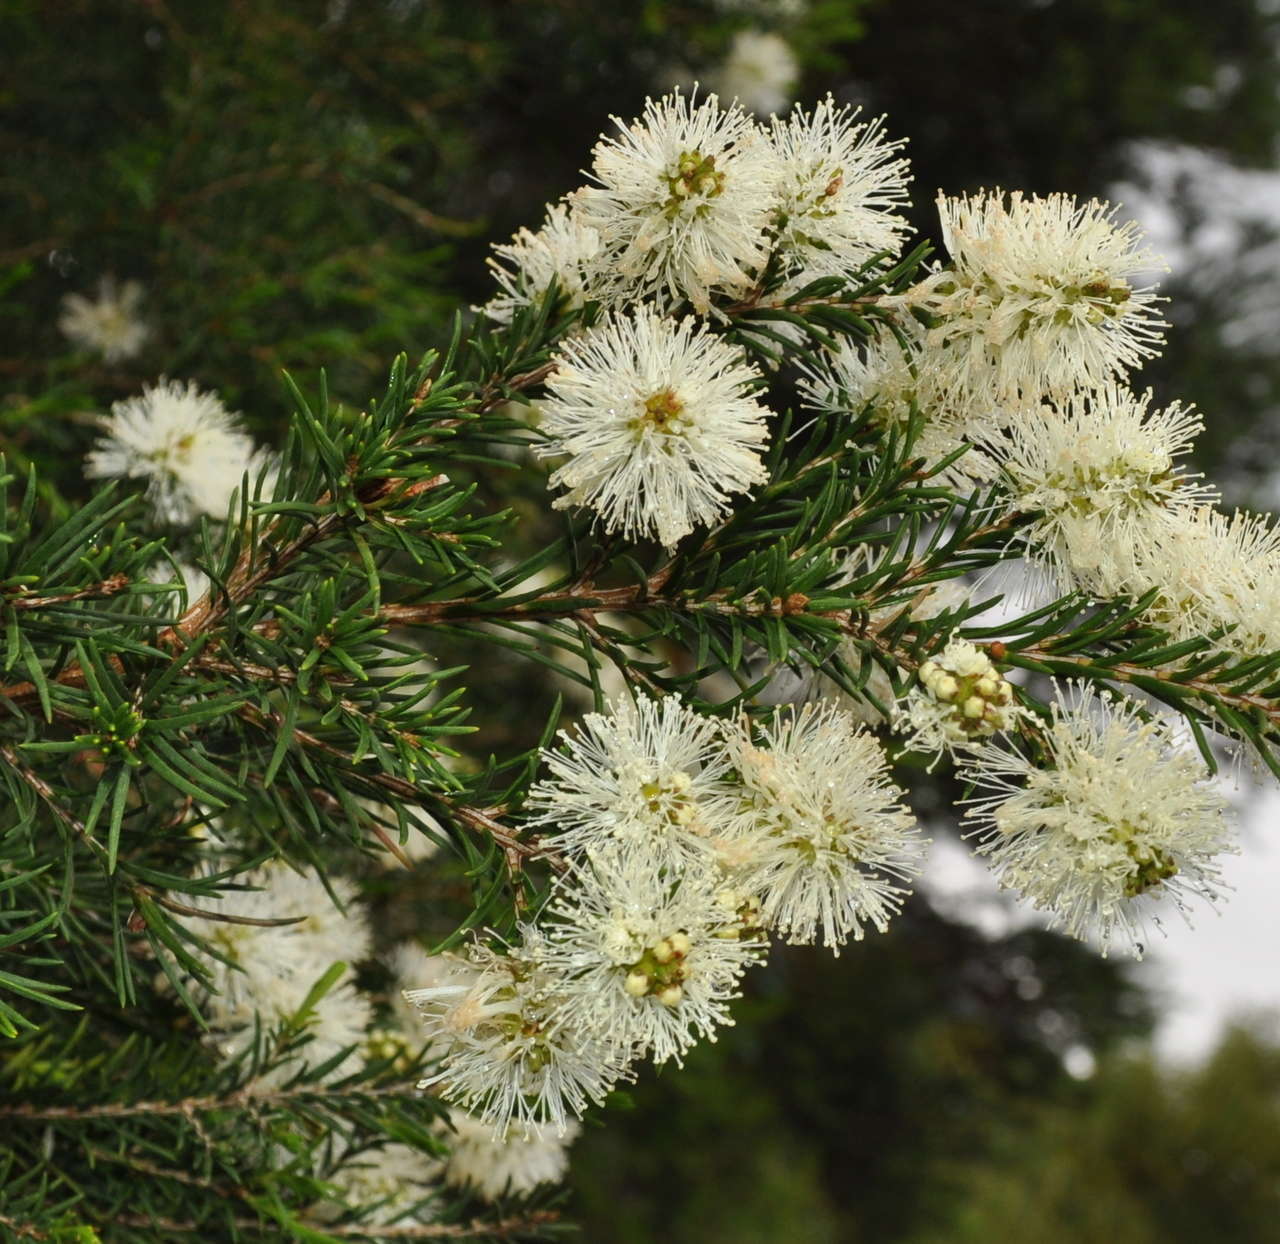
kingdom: Plantae
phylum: Tracheophyta
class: Magnoliopsida
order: Myrtales
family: Myrtaceae
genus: Melaleuca
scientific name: Melaleuca ericifolia
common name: Paperbark teatree
